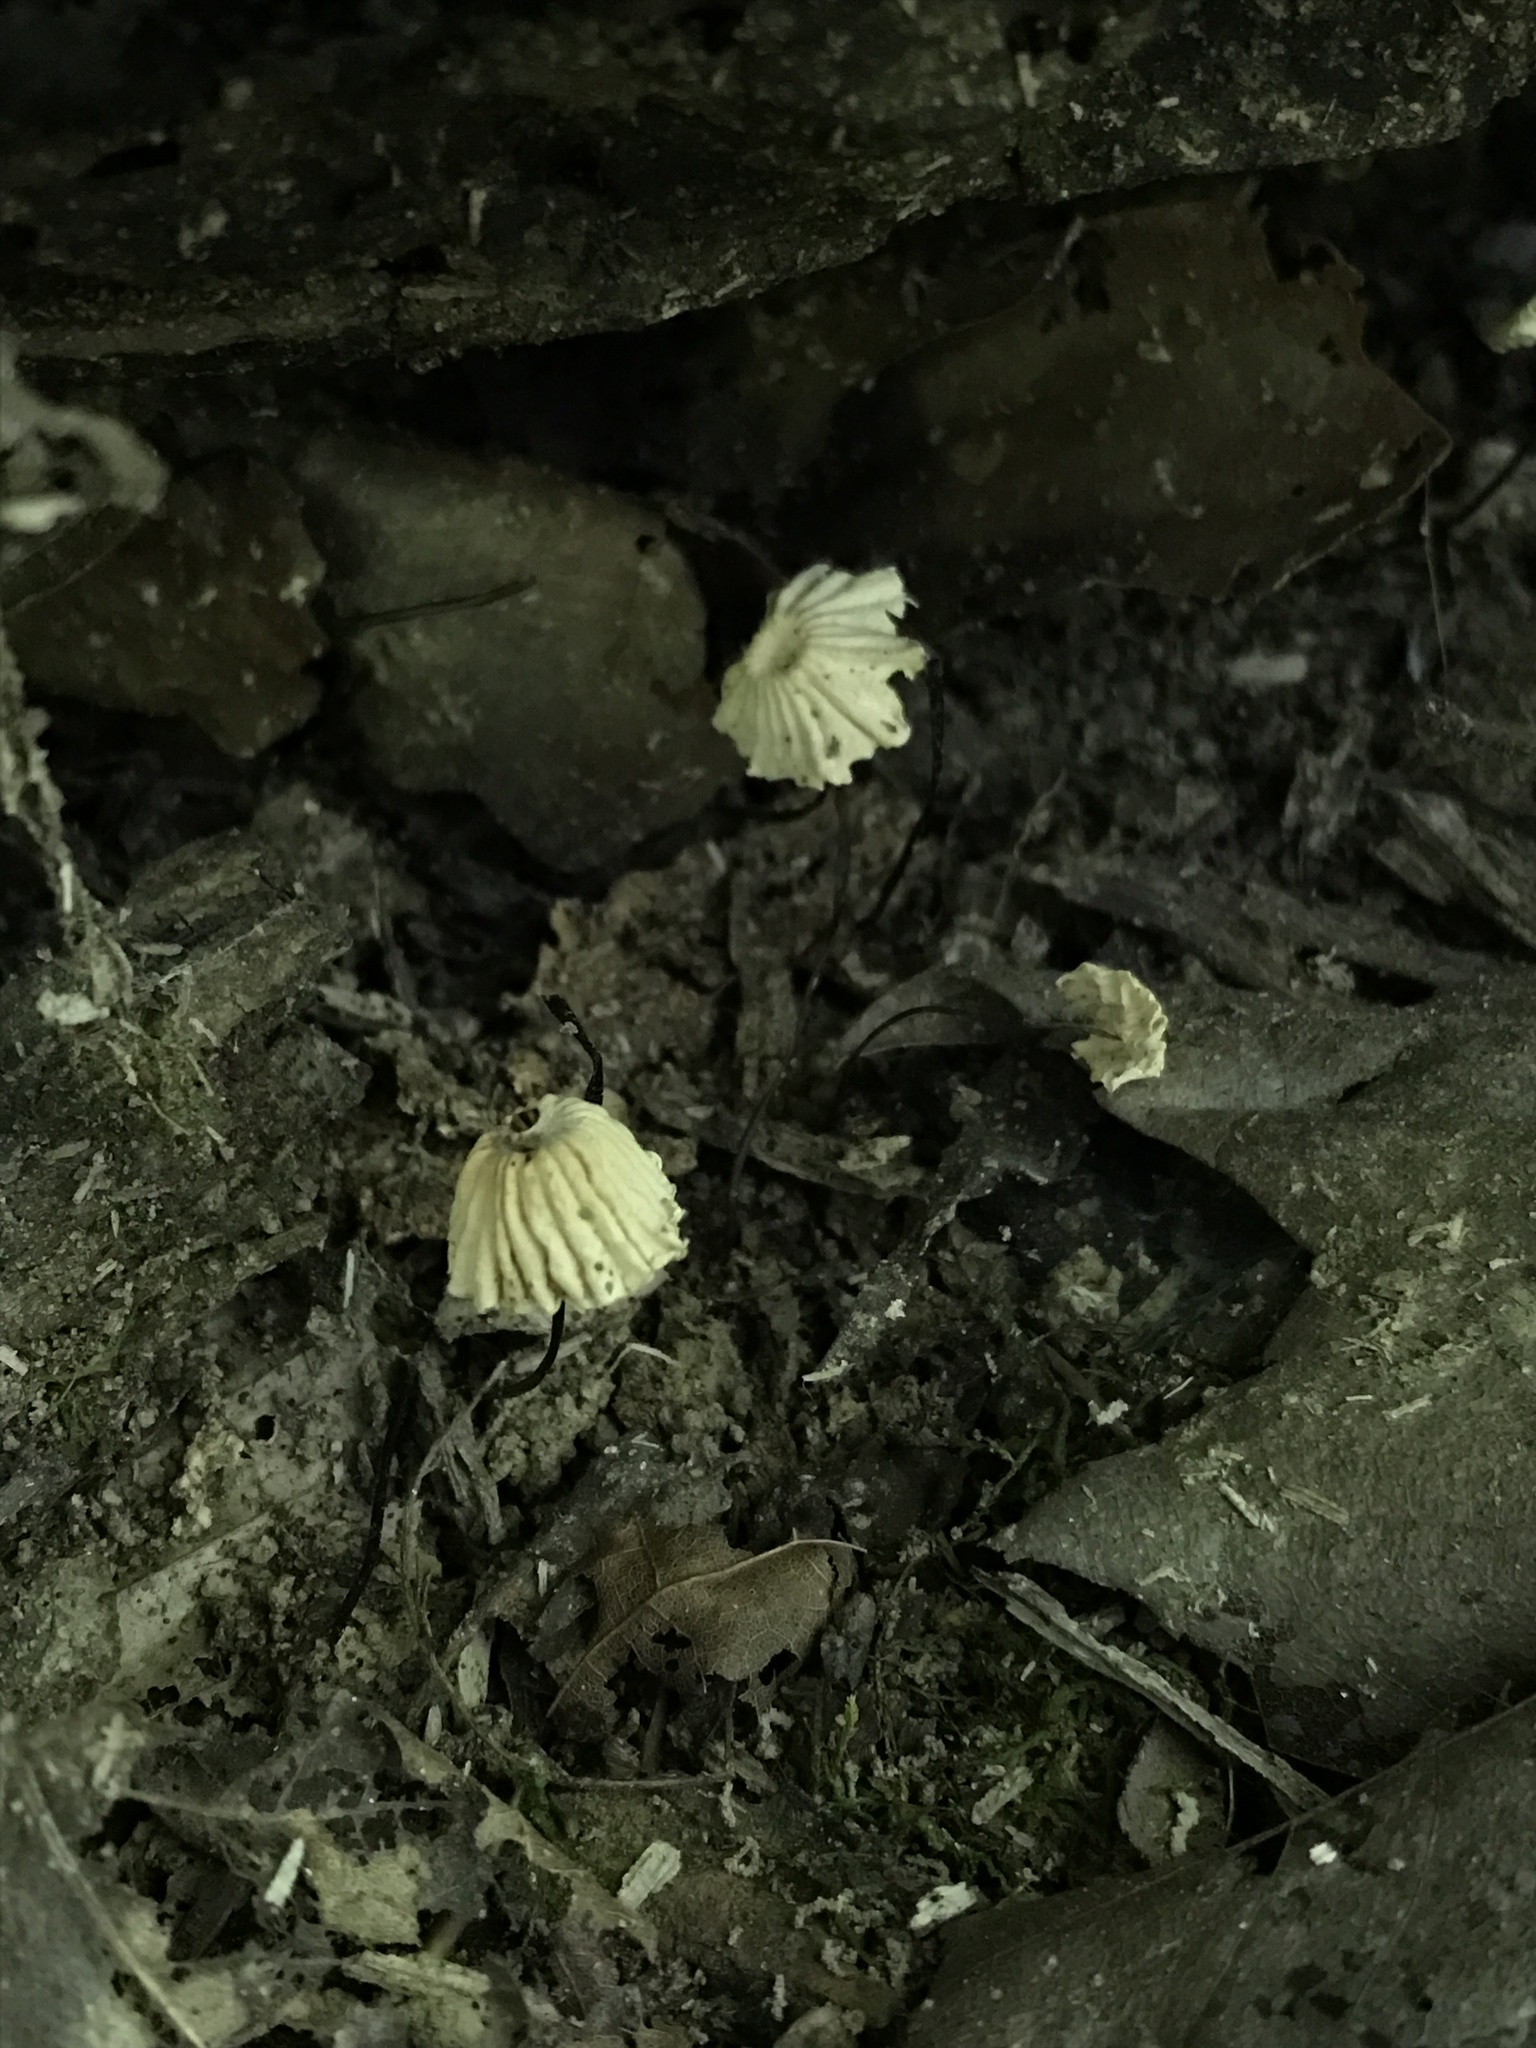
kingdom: Fungi
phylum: Basidiomycota
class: Agaricomycetes
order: Agaricales
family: Marasmiaceae
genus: Marasmius
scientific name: Marasmius capillaris
